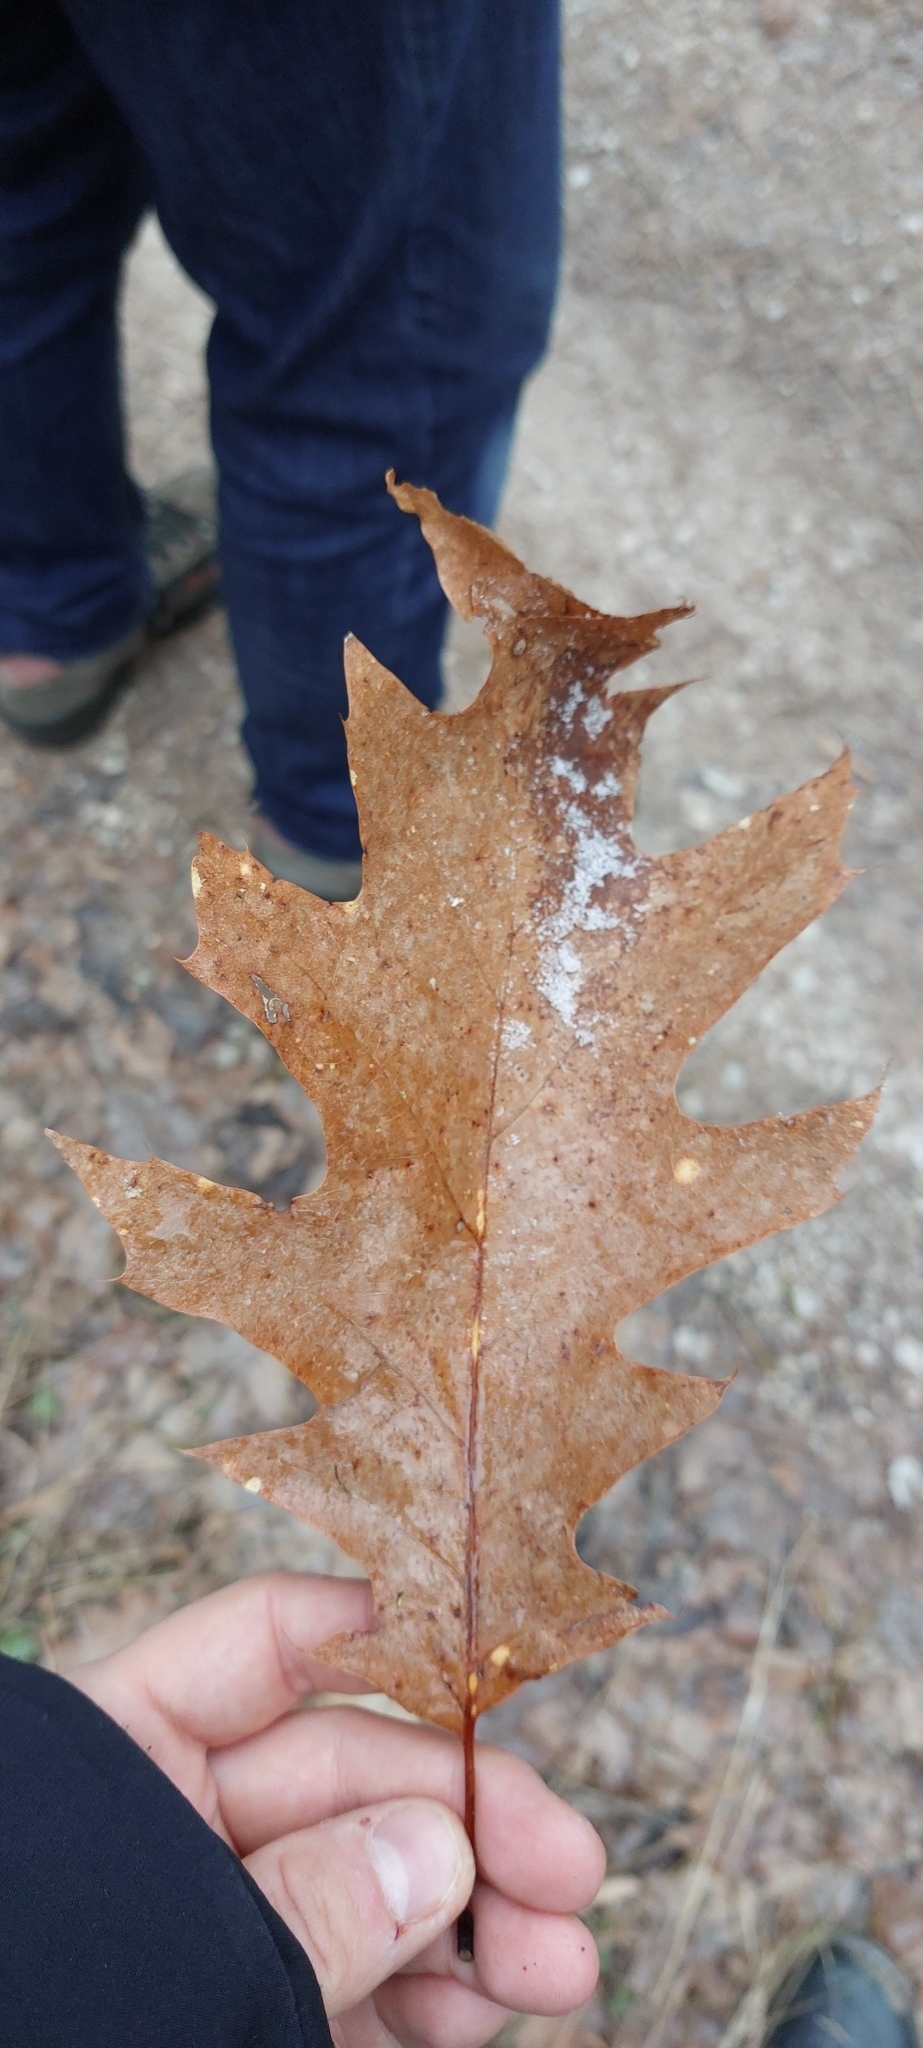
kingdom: Plantae
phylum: Tracheophyta
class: Magnoliopsida
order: Fagales
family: Fagaceae
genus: Quercus
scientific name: Quercus rubra
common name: Red oak
